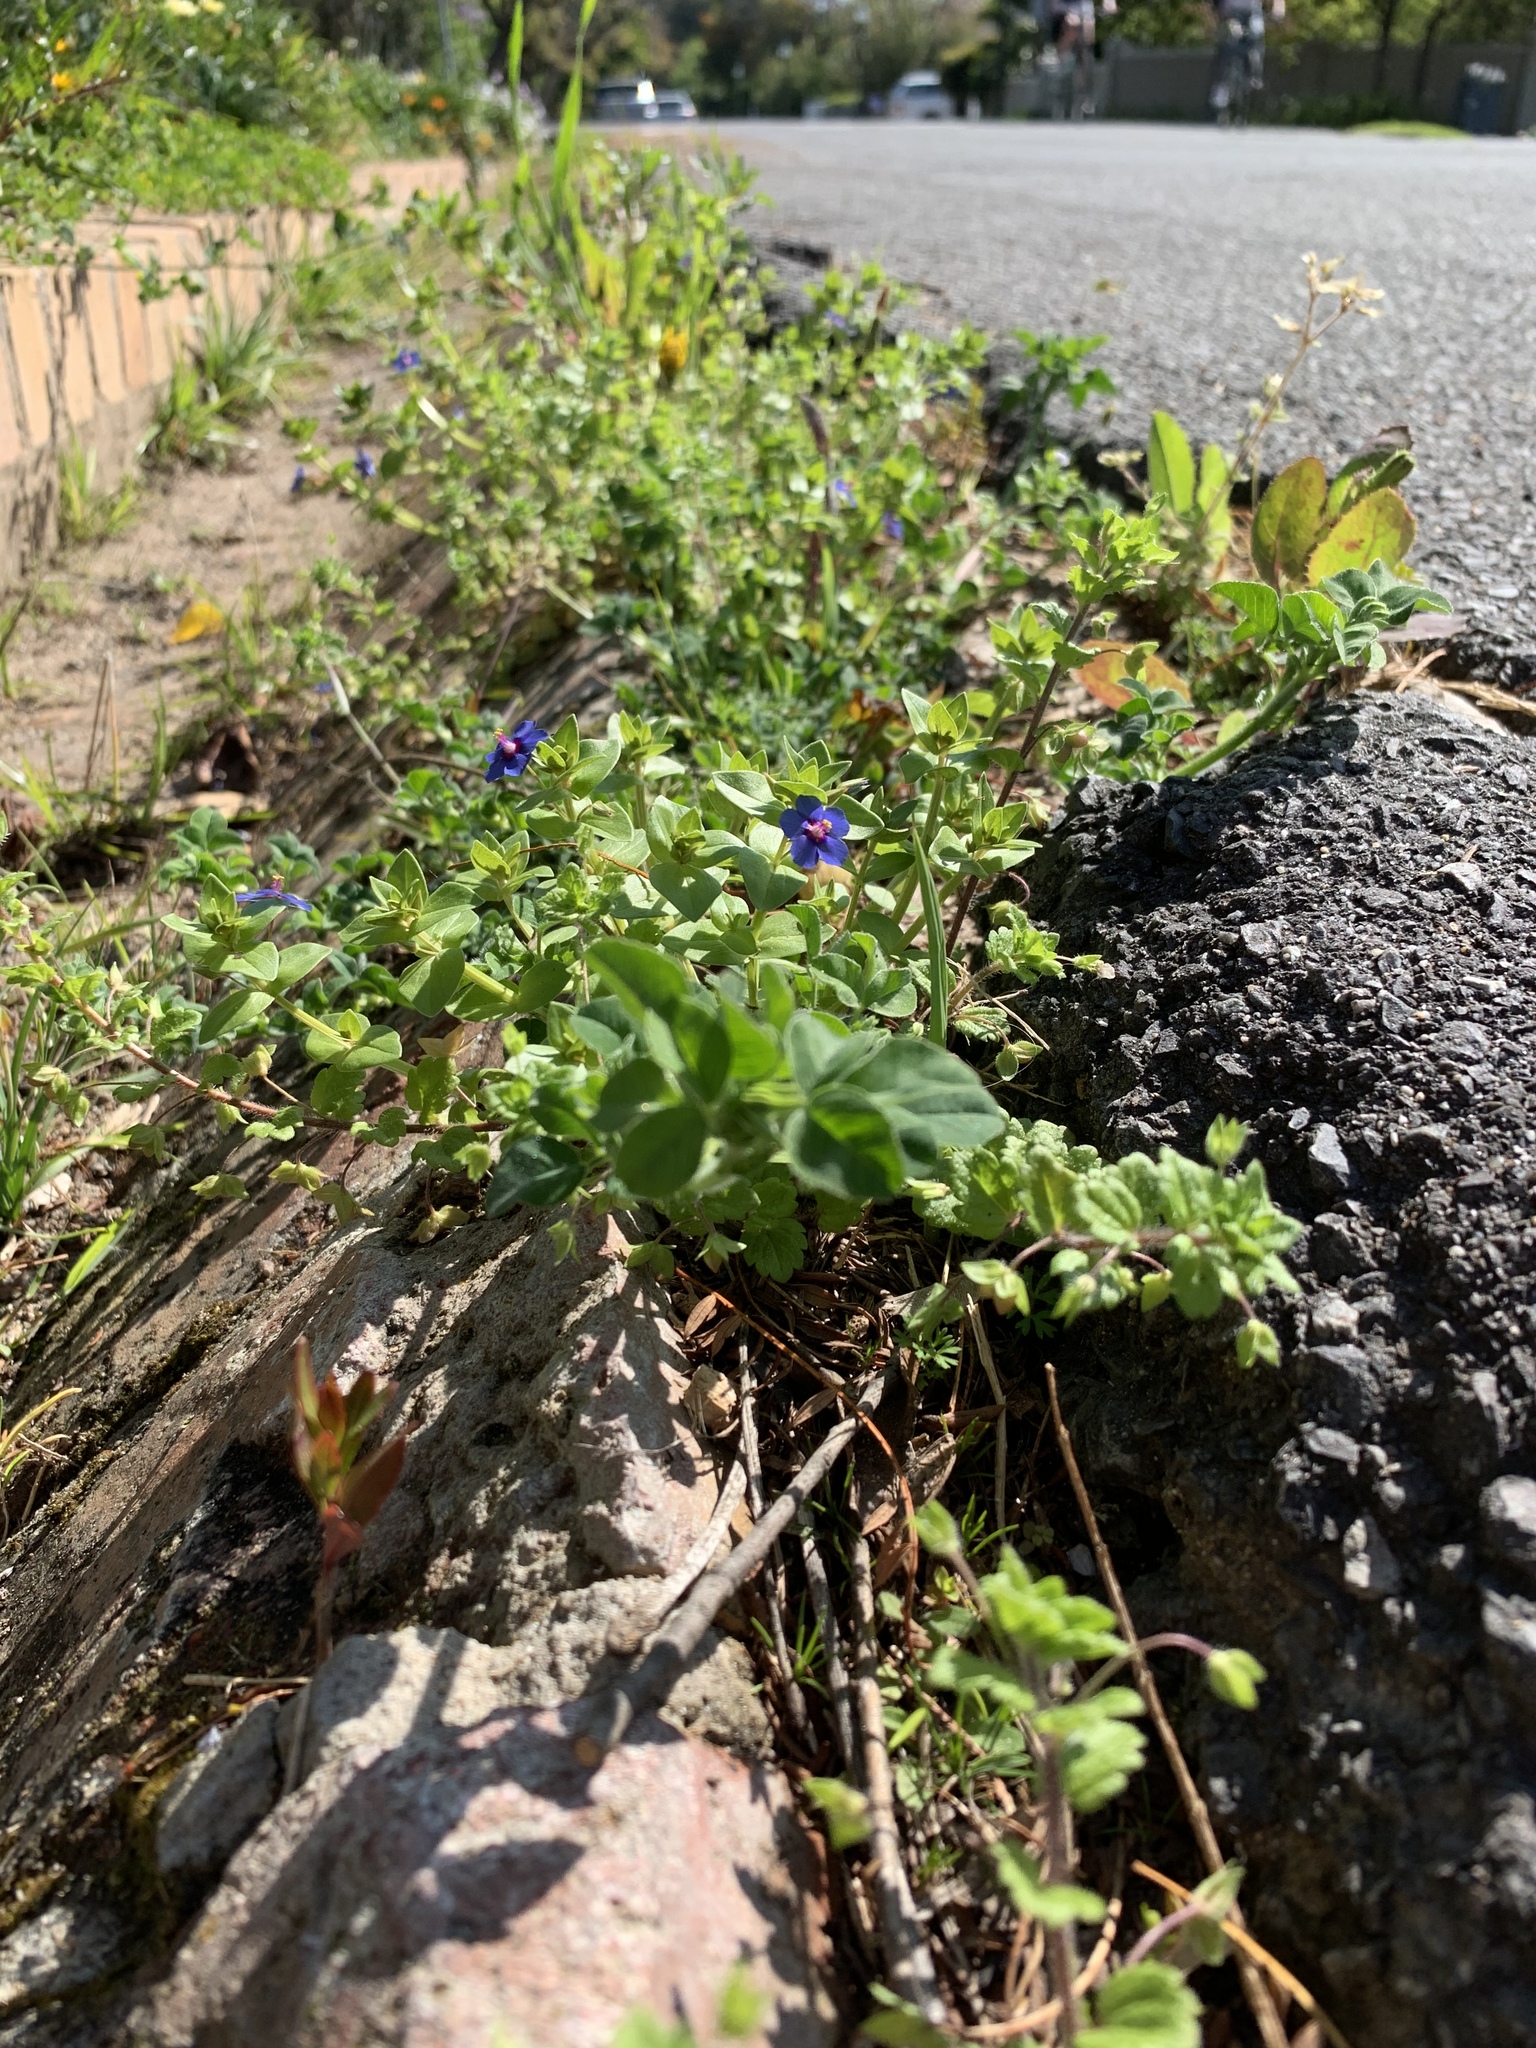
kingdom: Plantae
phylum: Tracheophyta
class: Magnoliopsida
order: Ericales
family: Primulaceae
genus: Lysimachia
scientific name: Lysimachia loeflingii
